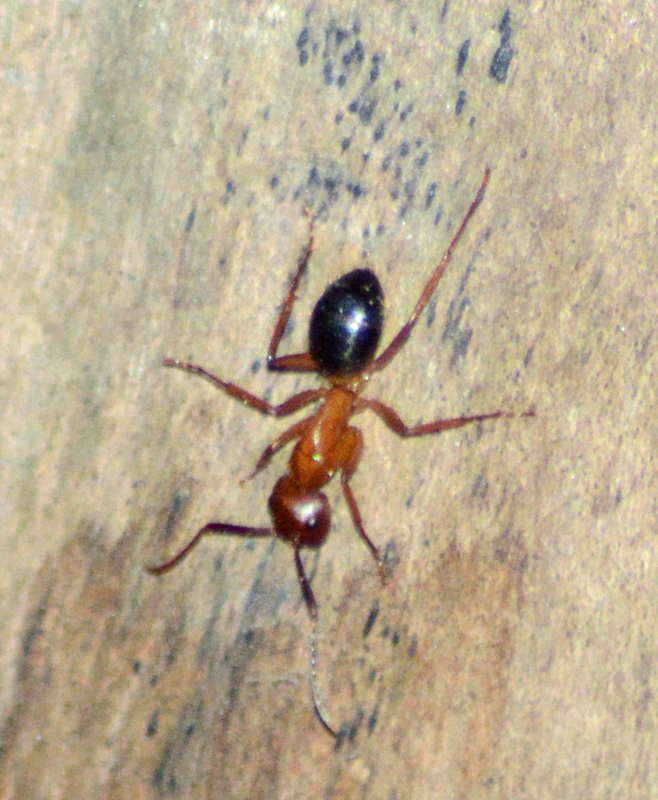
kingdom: Animalia
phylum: Arthropoda
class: Insecta
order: Hymenoptera
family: Formicidae
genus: Camponotus
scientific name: Camponotus atriceps
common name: Florida carpenter ant
